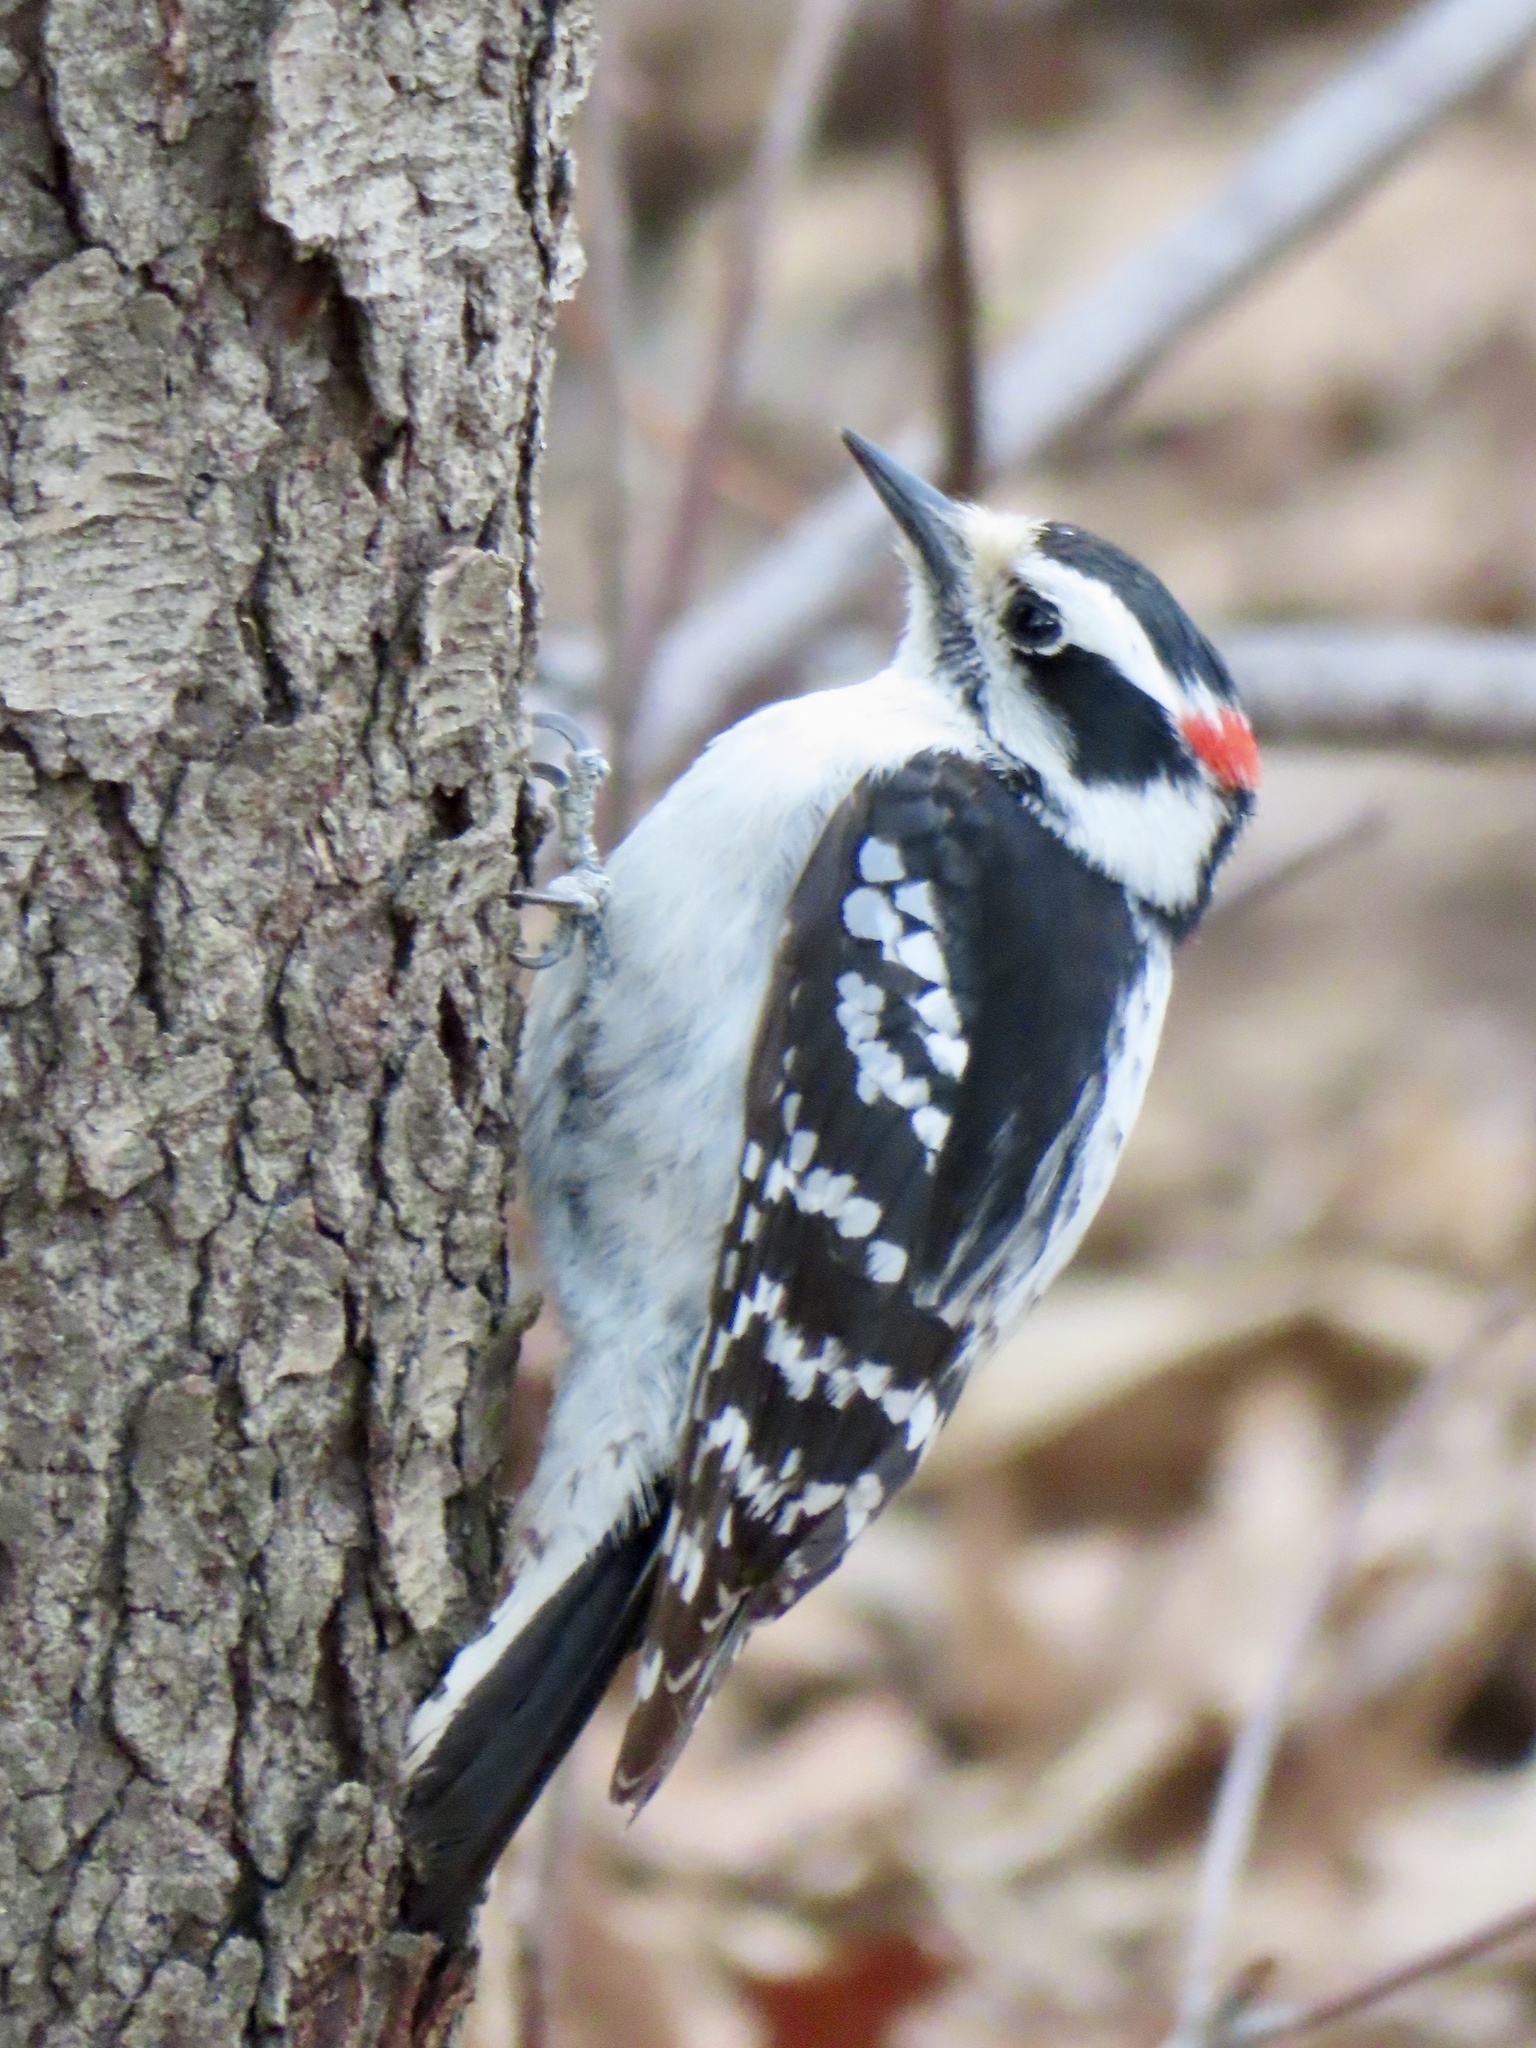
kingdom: Animalia
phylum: Chordata
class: Aves
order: Piciformes
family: Picidae
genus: Dryobates
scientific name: Dryobates pubescens
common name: Downy woodpecker
